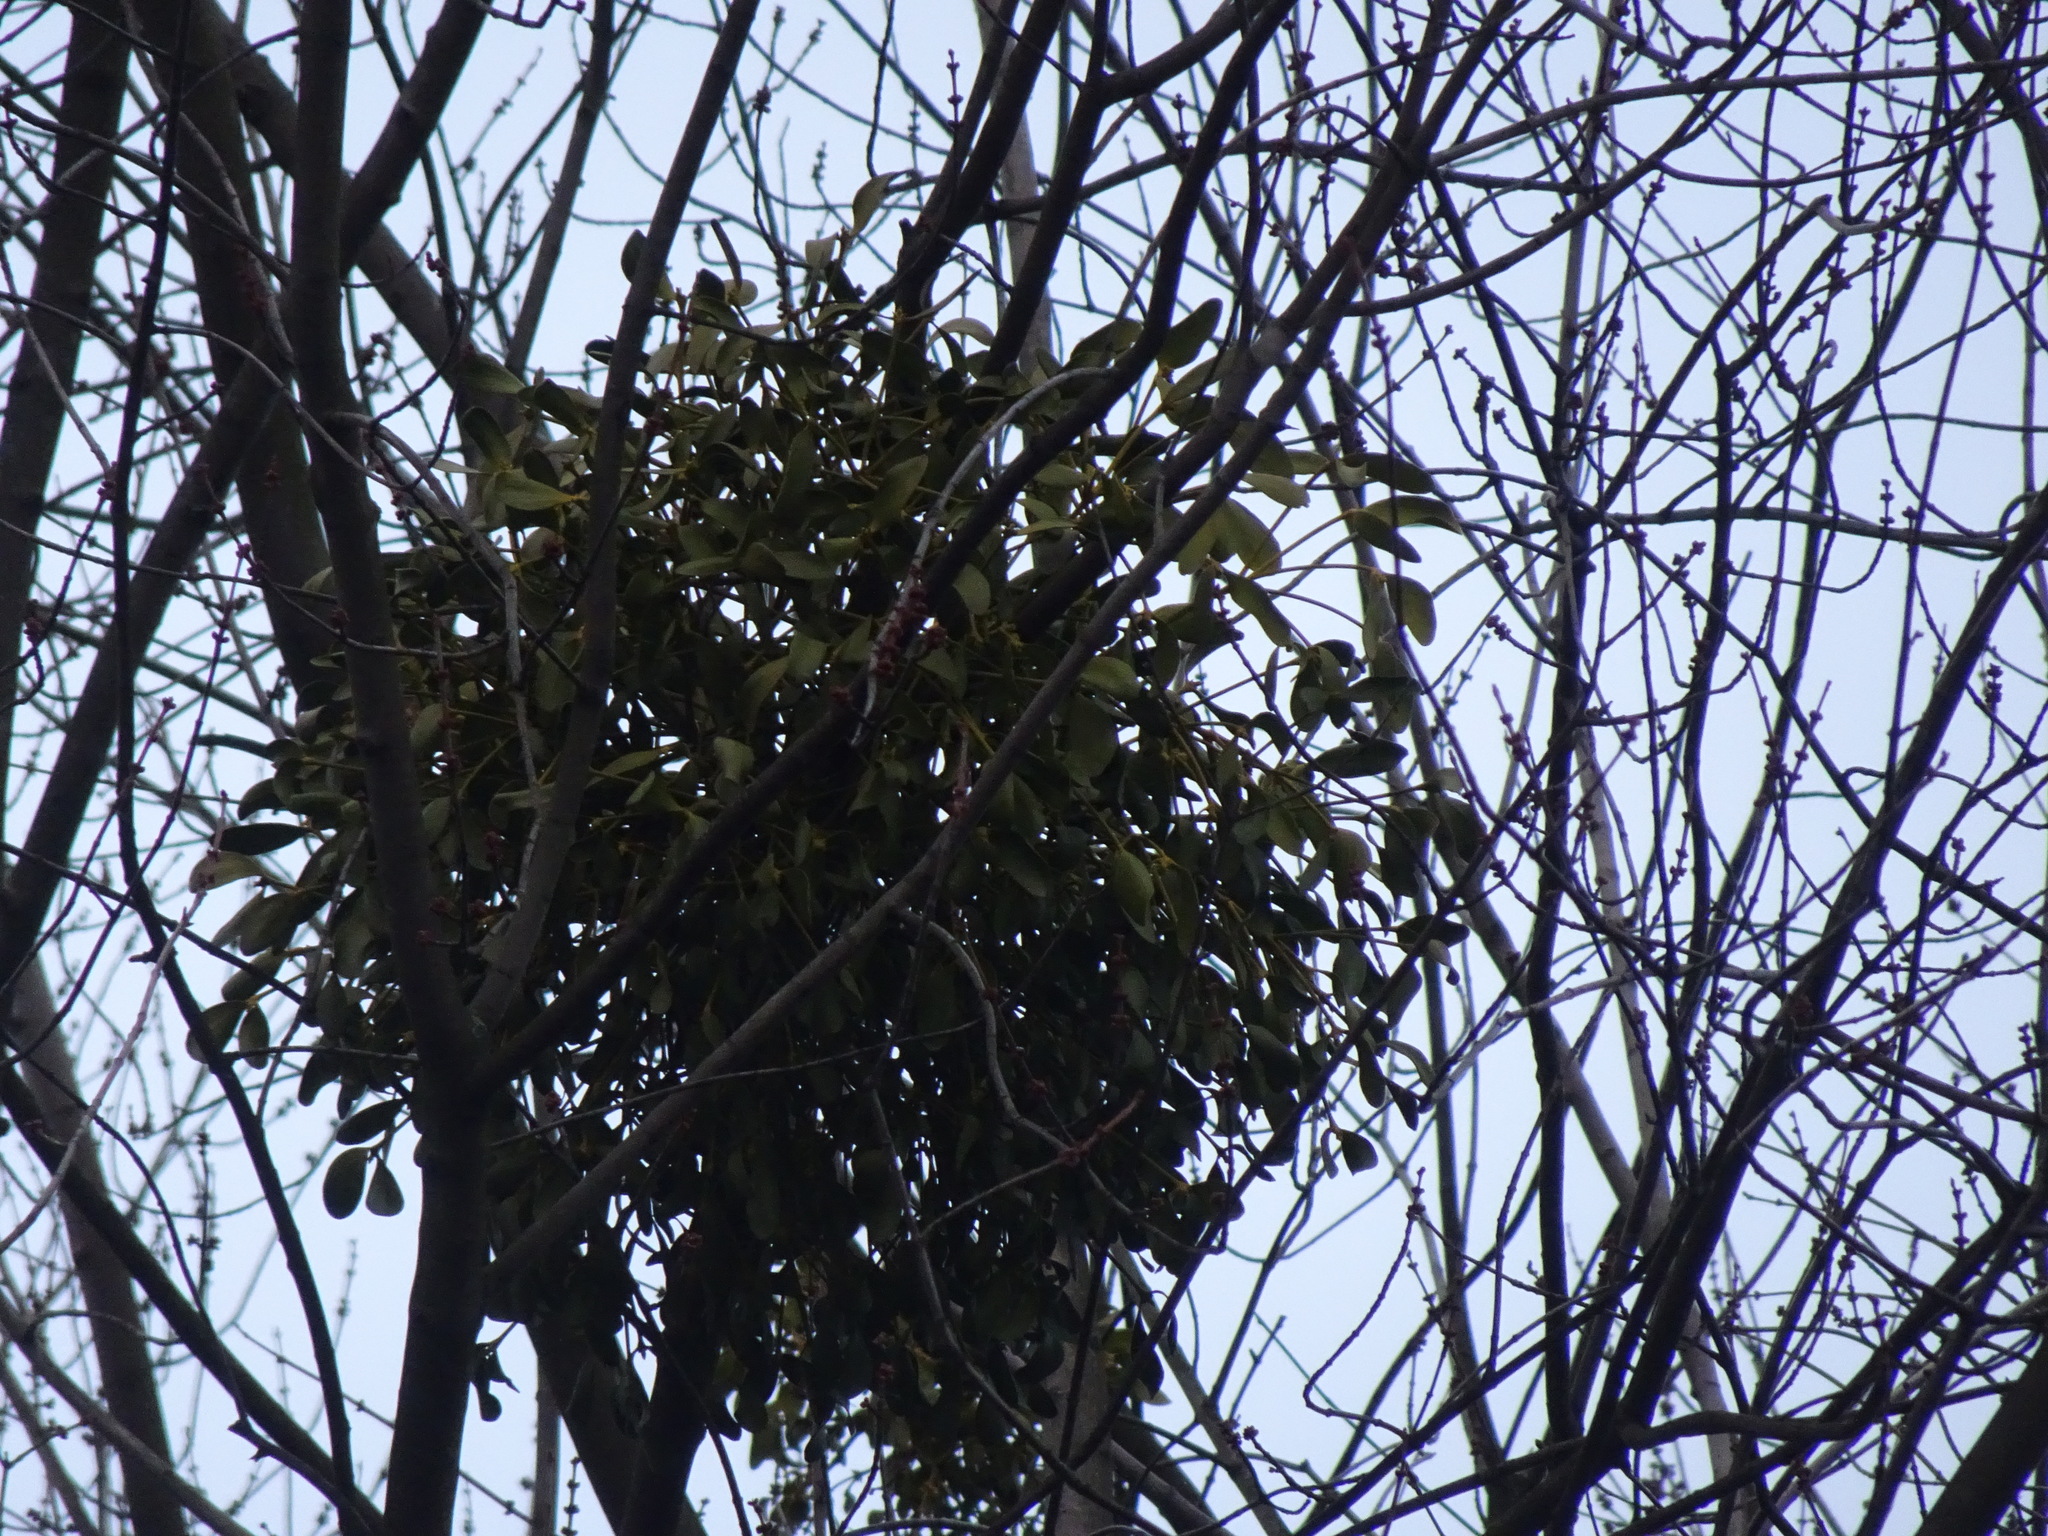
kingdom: Plantae
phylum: Tracheophyta
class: Magnoliopsida
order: Santalales
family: Viscaceae
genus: Viscum
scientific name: Viscum album
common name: Mistletoe
